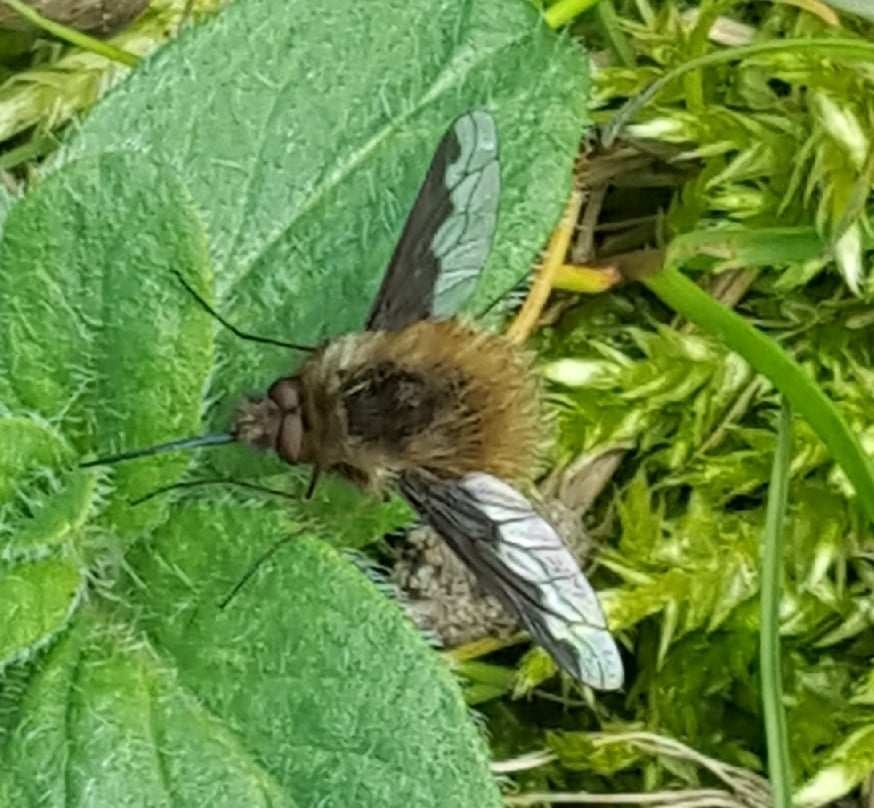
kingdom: Animalia
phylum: Arthropoda
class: Insecta
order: Diptera
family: Bombyliidae
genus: Bombylius
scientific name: Bombylius major
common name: Bee fly
